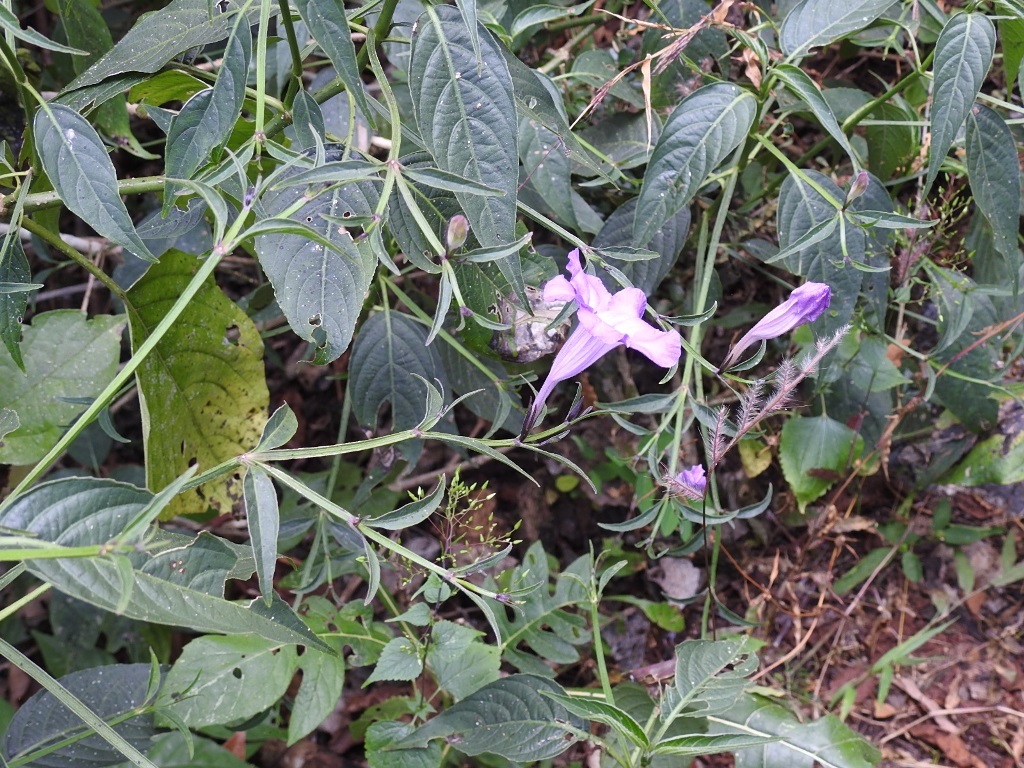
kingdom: Plantae
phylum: Tracheophyta
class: Magnoliopsida
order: Lamiales
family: Acanthaceae
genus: Ruellia
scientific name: Ruellia breedlovei
